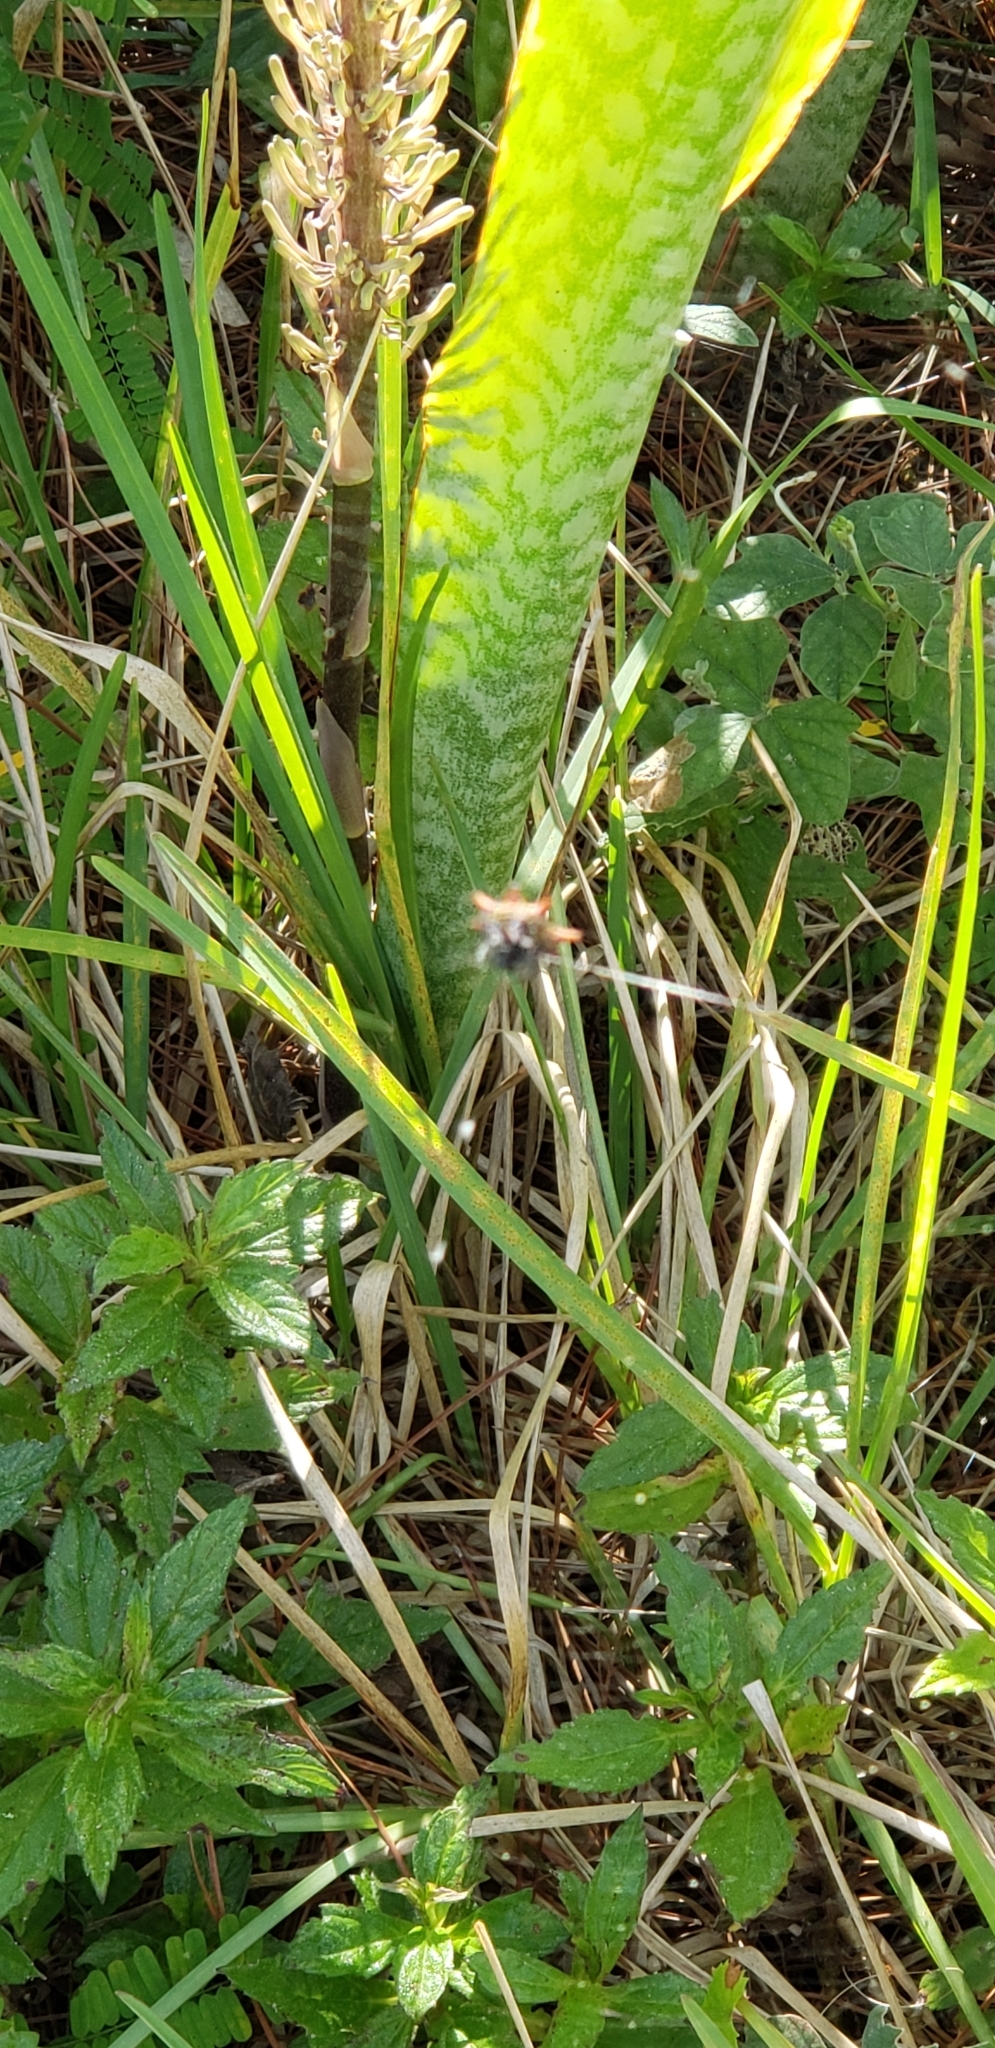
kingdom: Animalia
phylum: Arthropoda
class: Arachnida
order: Araneae
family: Araneidae
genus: Gasteracantha
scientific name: Gasteracantha cancriformis
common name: Orb weavers
